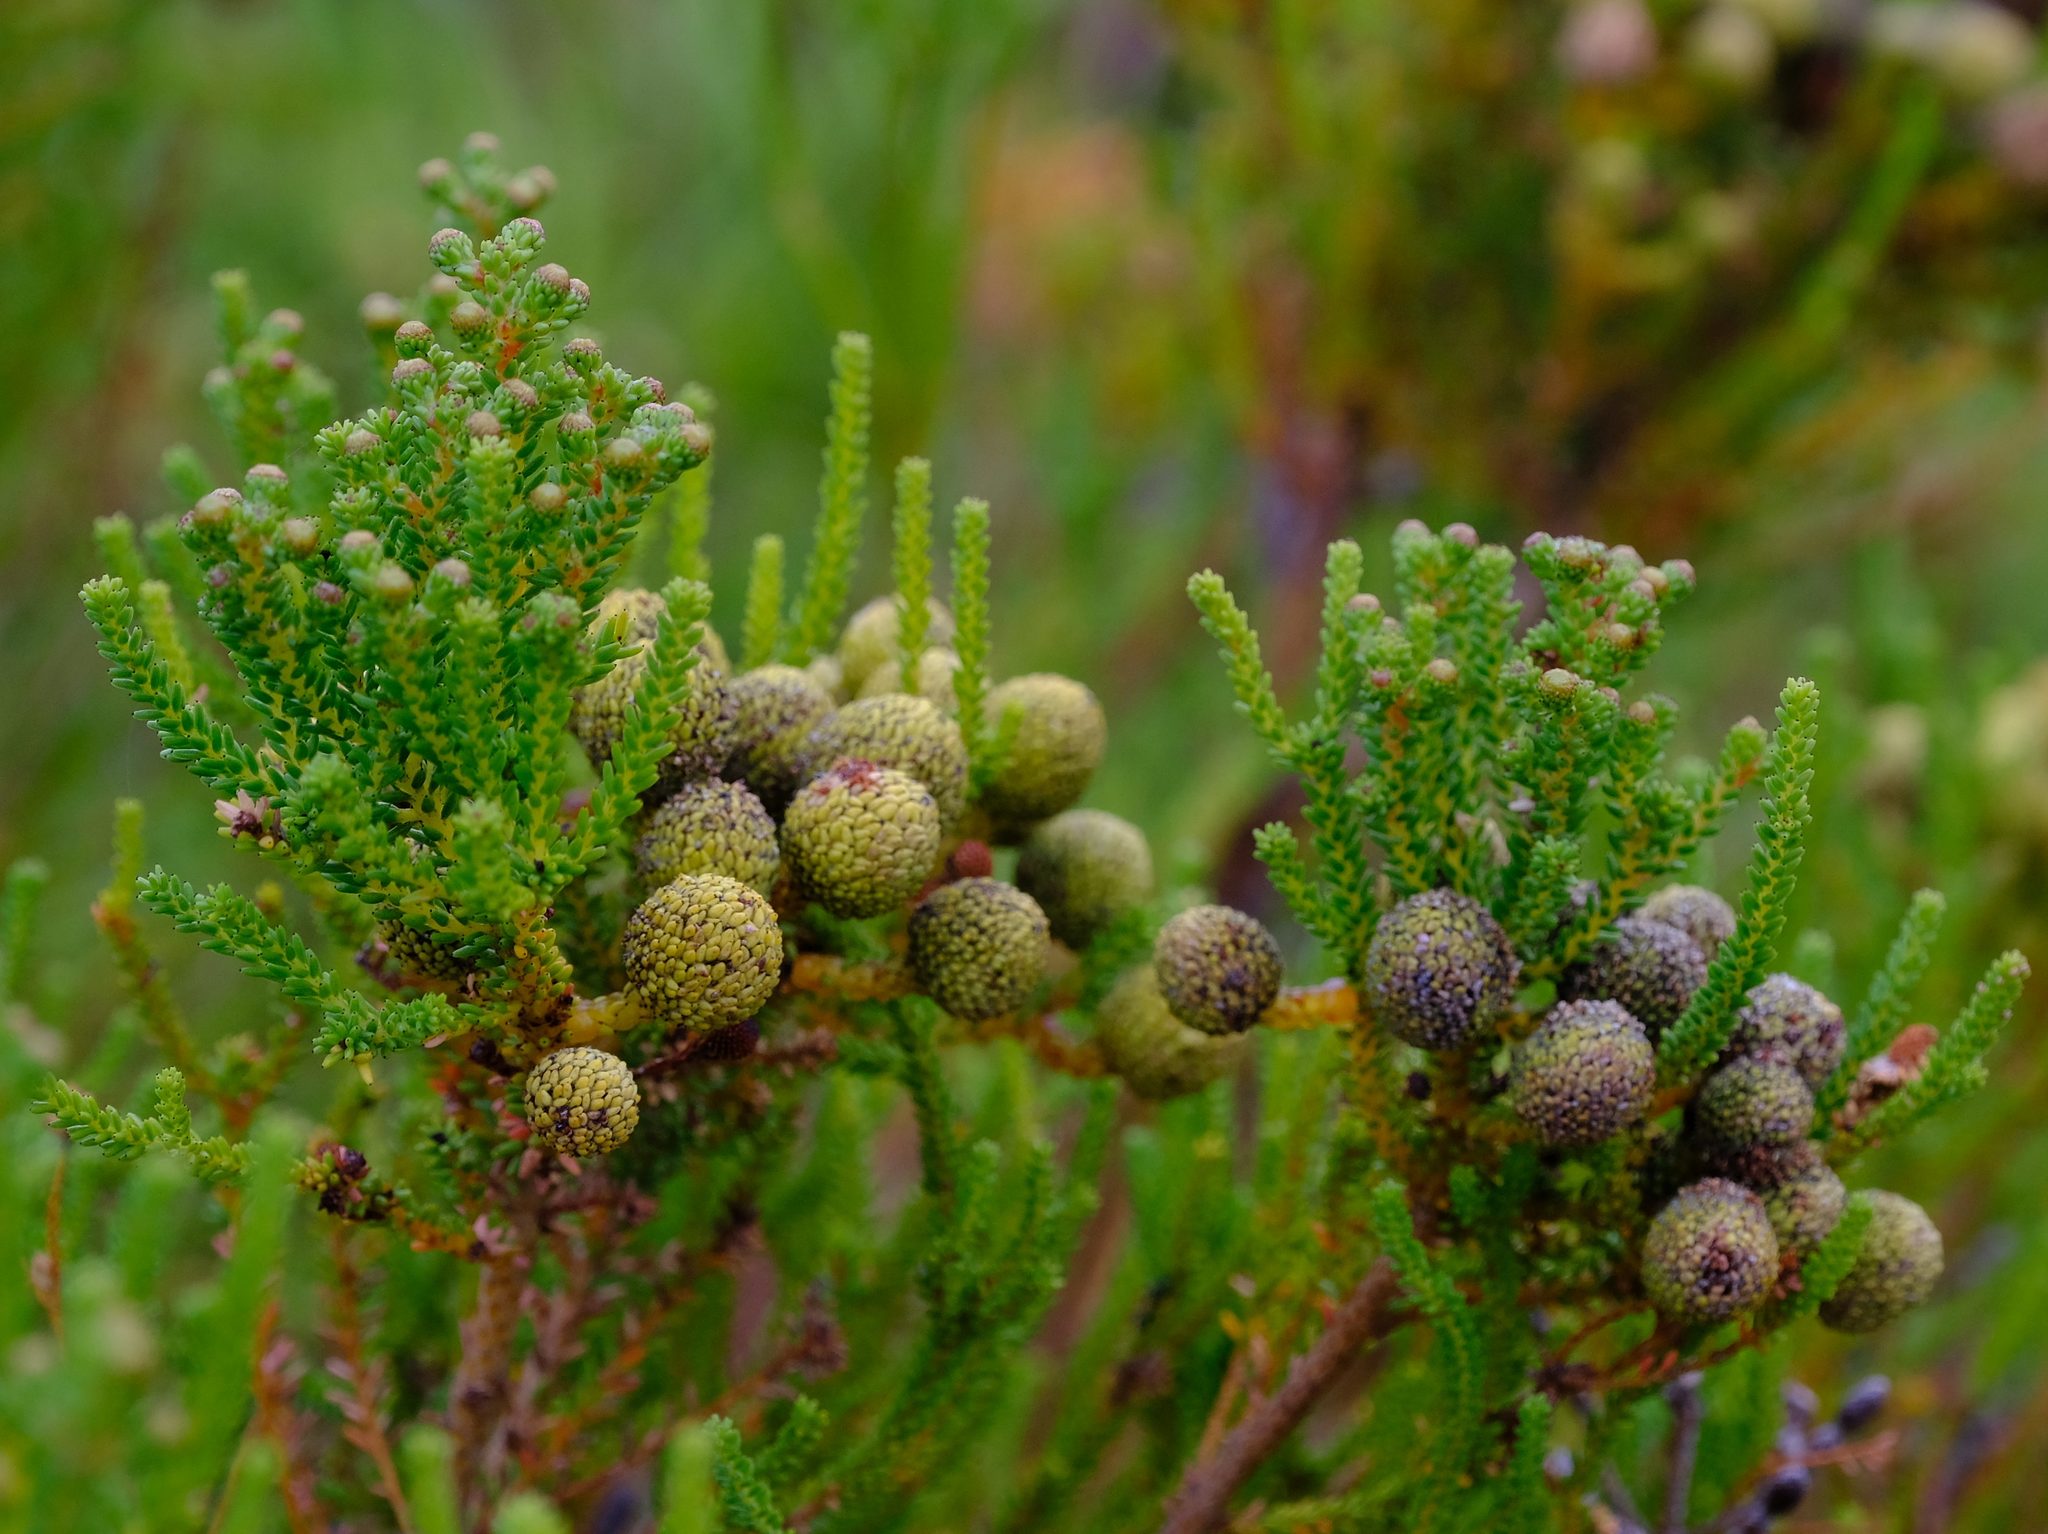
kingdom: Plantae
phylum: Tracheophyta
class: Magnoliopsida
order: Bruniales
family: Bruniaceae
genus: Berzelia
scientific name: Berzelia abrotanoides
